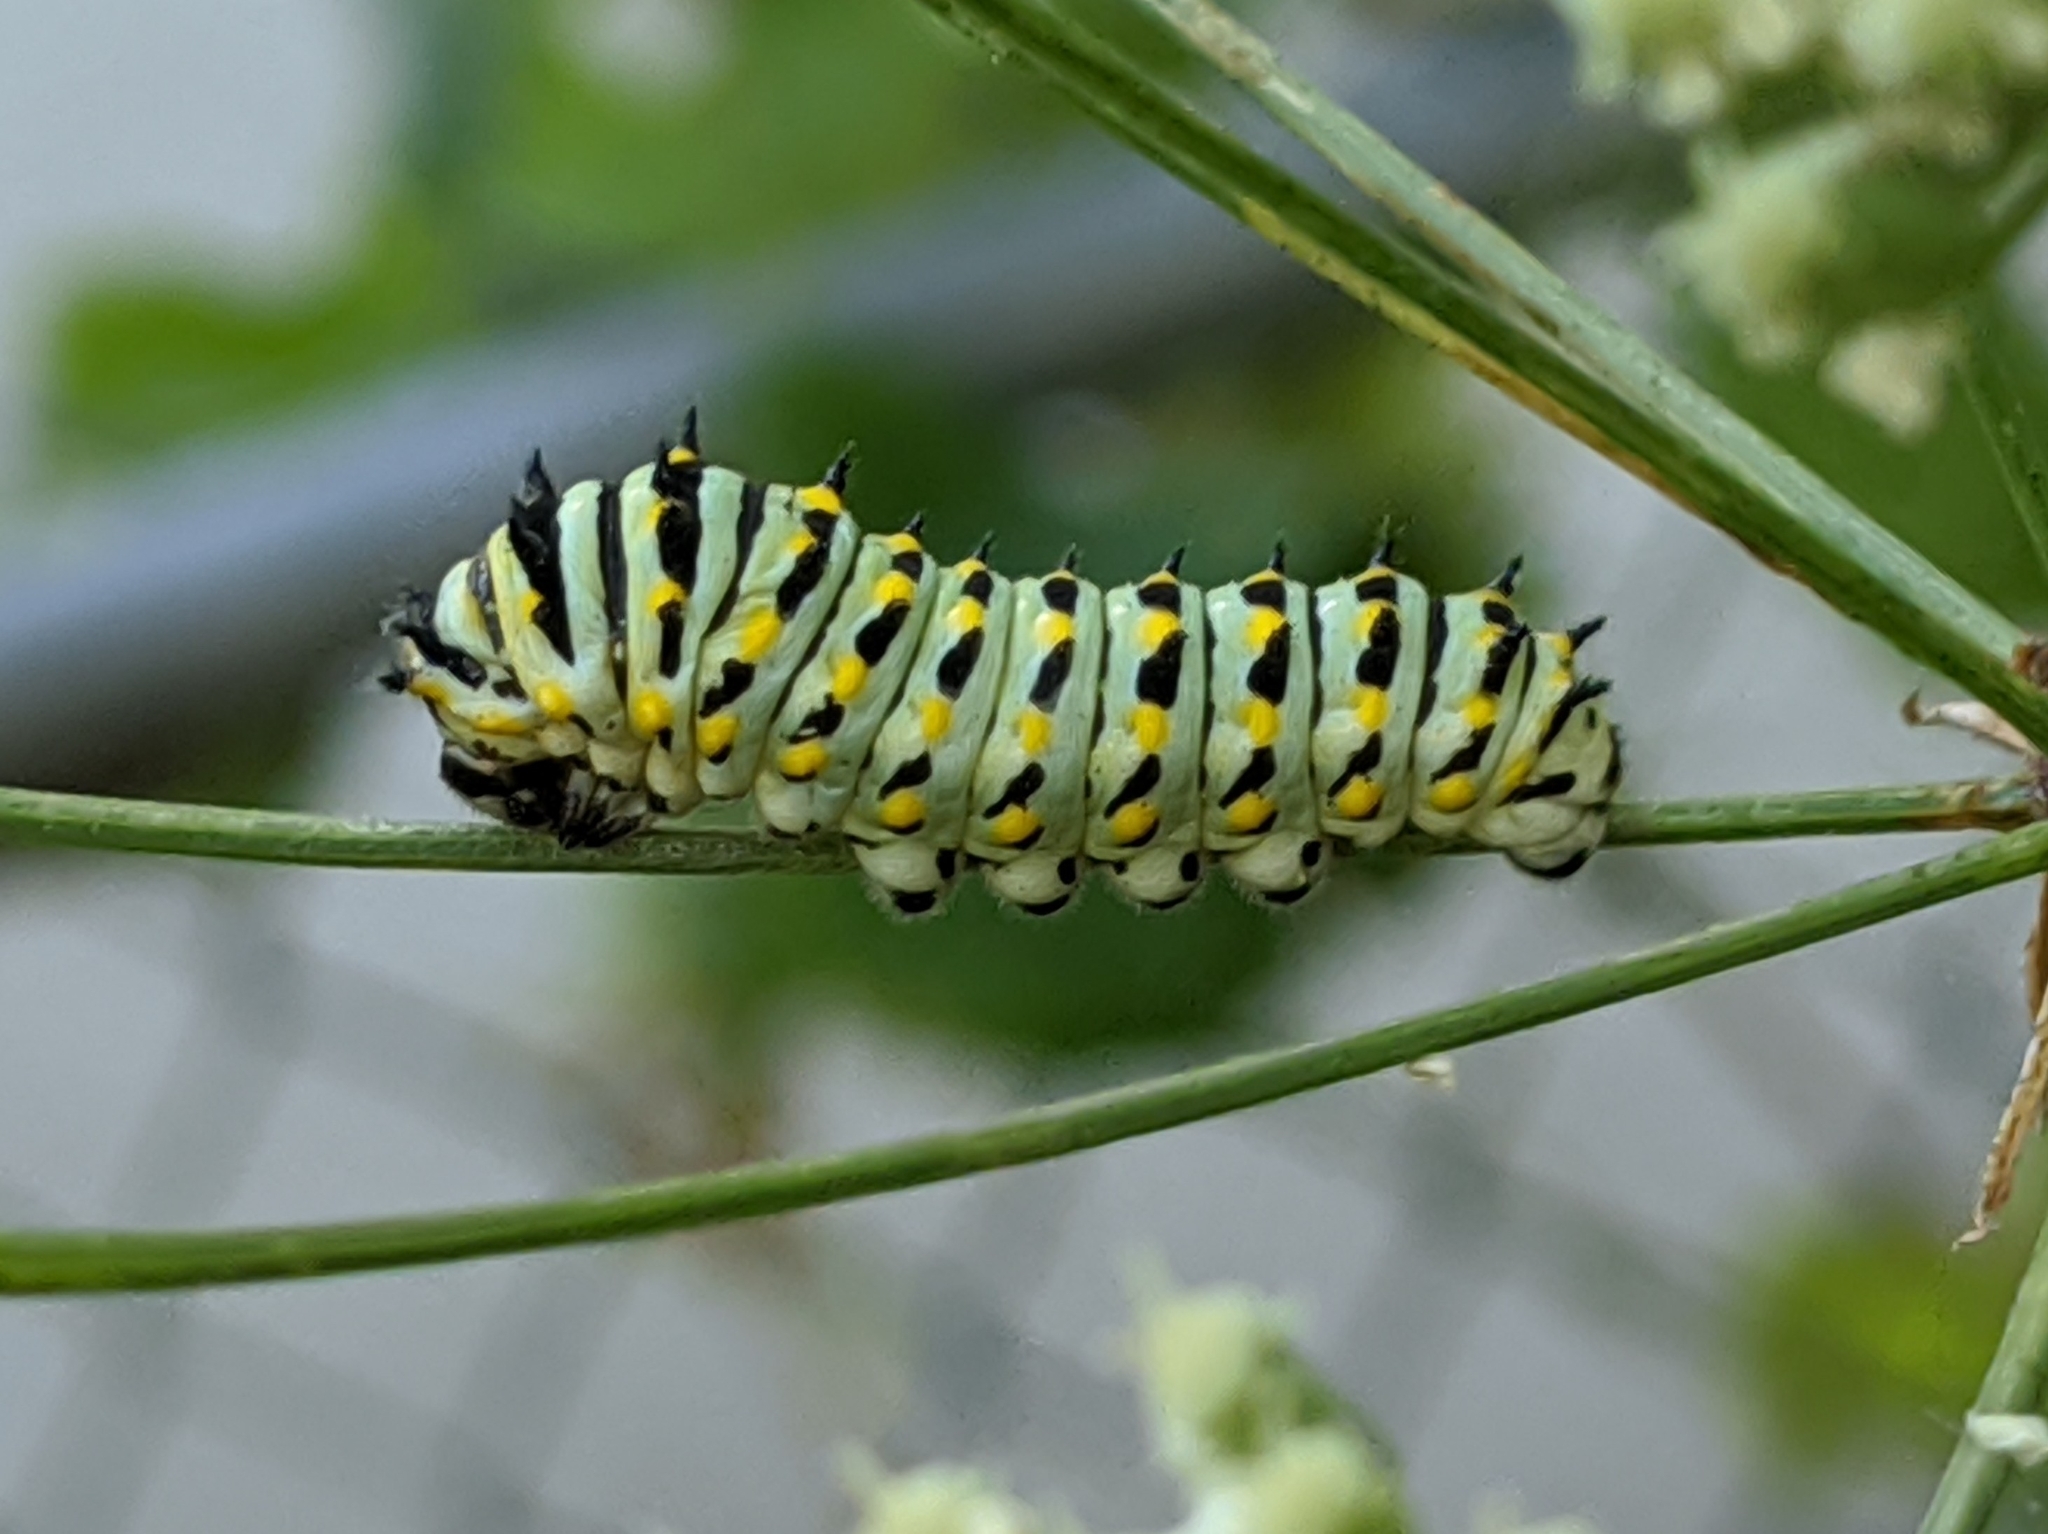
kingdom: Animalia
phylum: Arthropoda
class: Insecta
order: Lepidoptera
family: Papilionidae
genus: Papilio
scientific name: Papilio zelicaon
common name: Anise swallowtail
